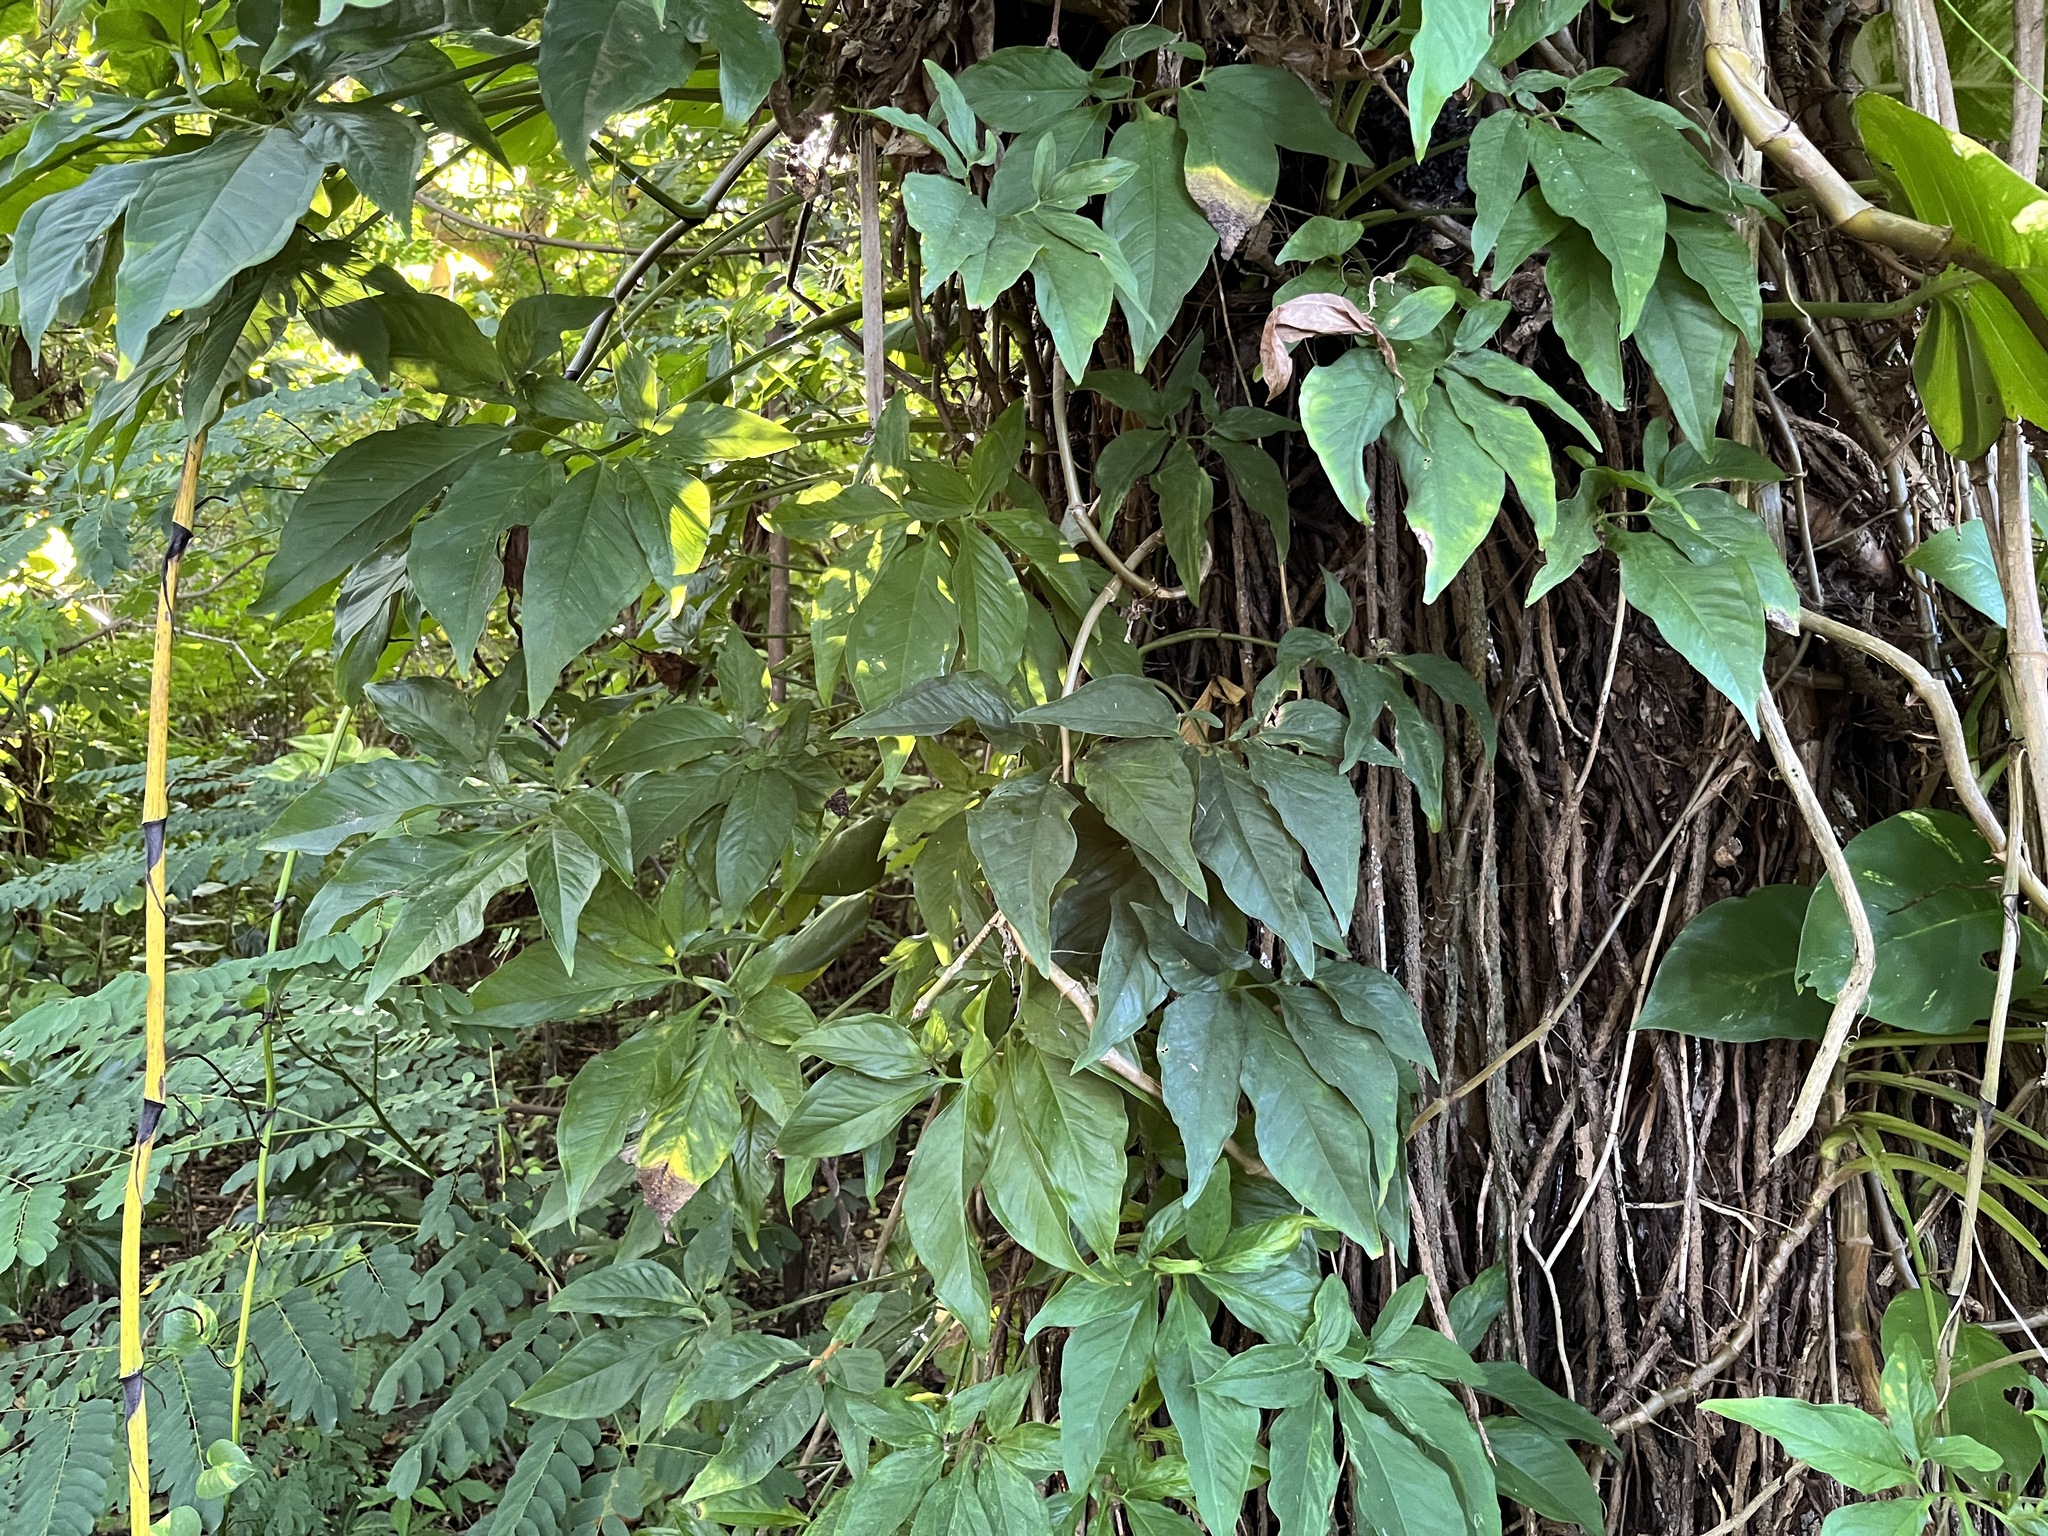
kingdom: Plantae
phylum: Tracheophyta
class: Liliopsida
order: Alismatales
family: Araceae
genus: Syngonium
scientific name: Syngonium podophyllum
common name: American evergreen
